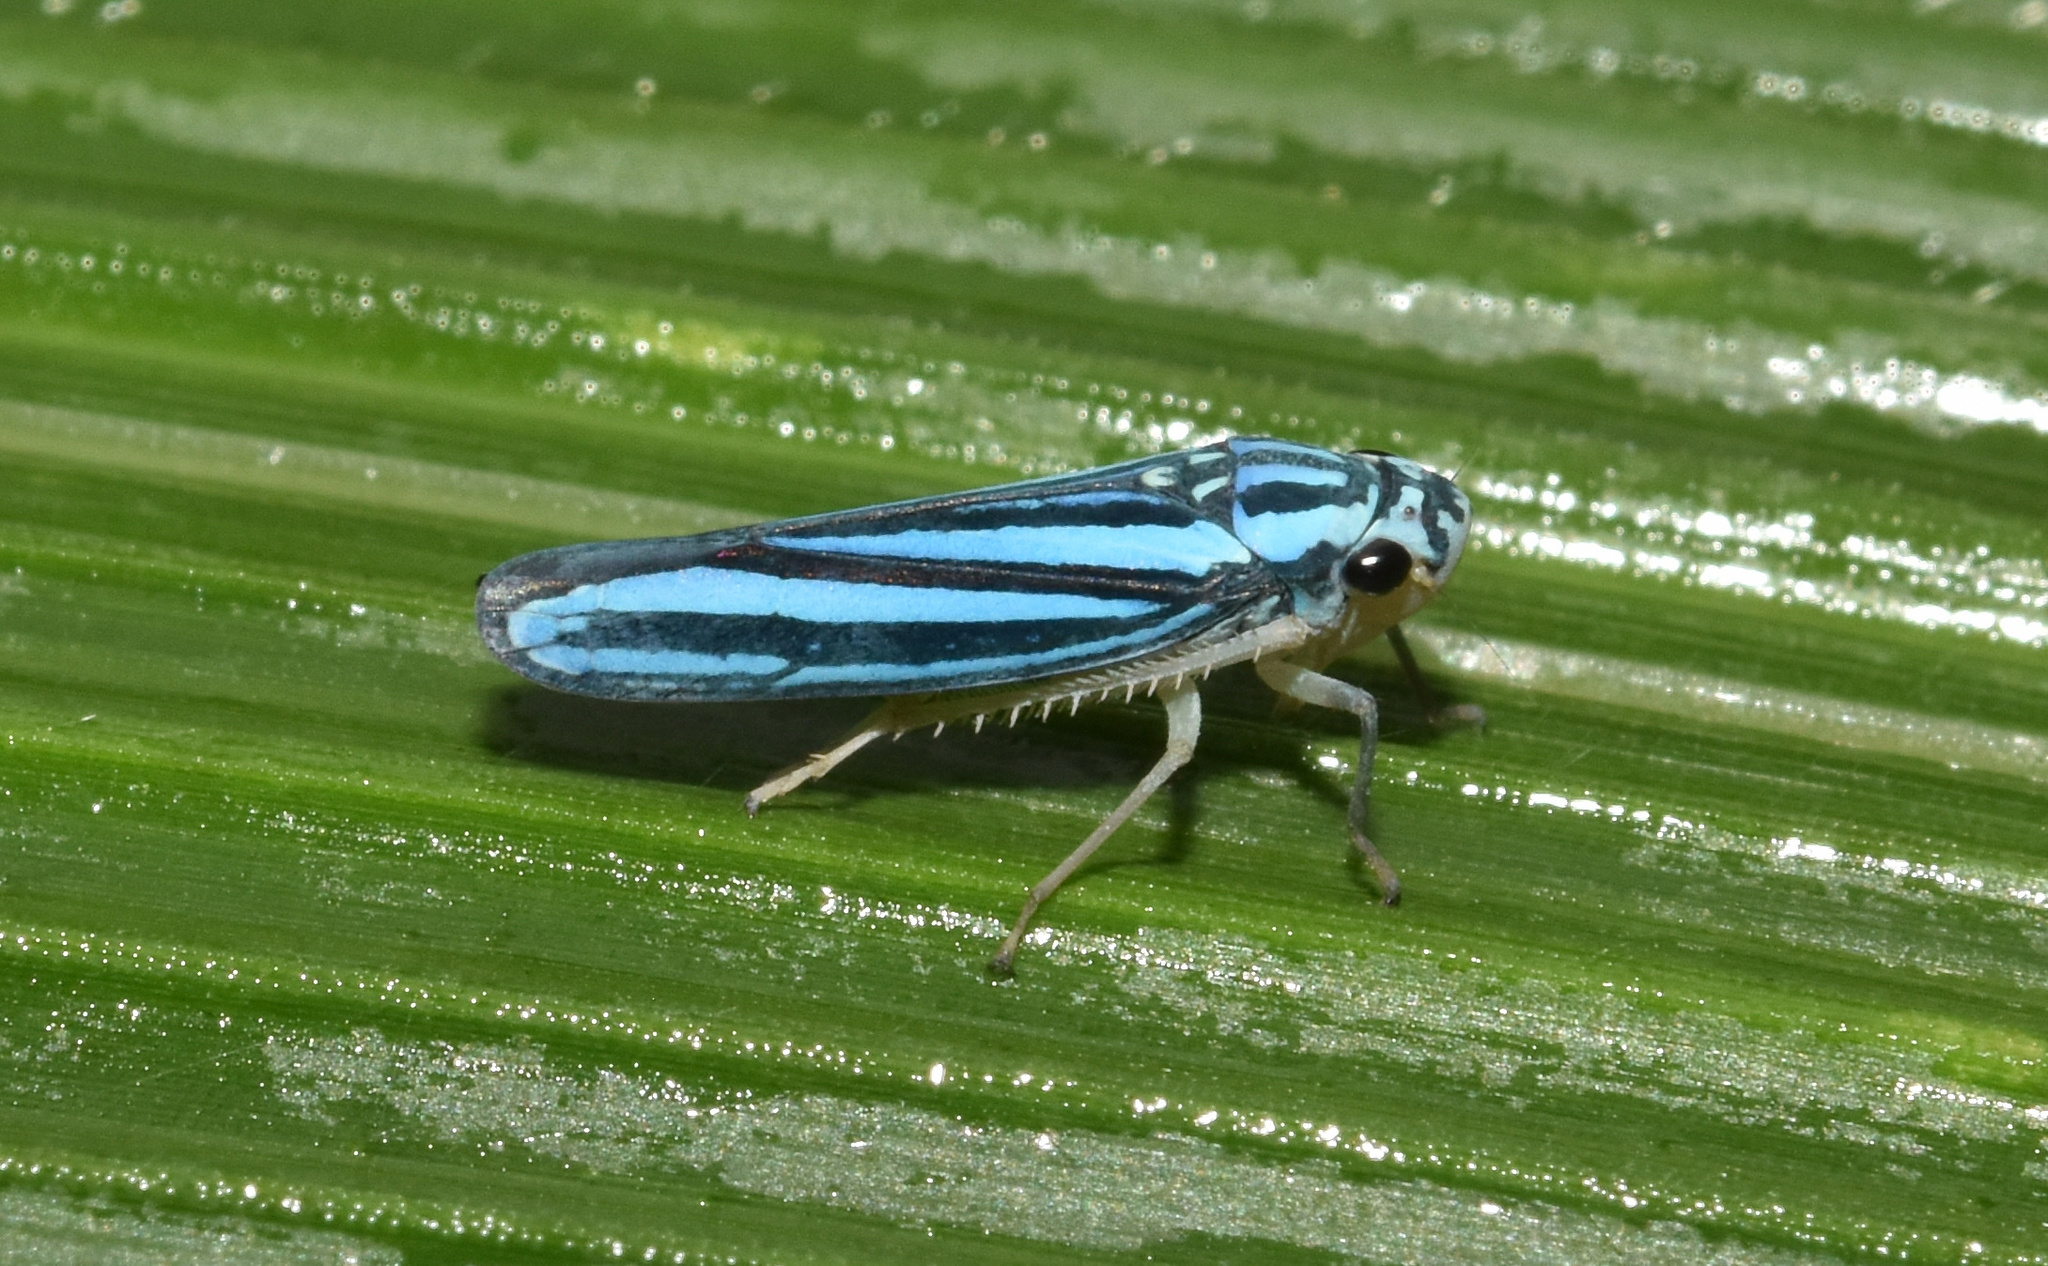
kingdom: Animalia
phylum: Arthropoda
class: Insecta
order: Hemiptera
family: Cicadellidae
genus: Tettigoniella
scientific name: Tettigoniella cosmopolita
